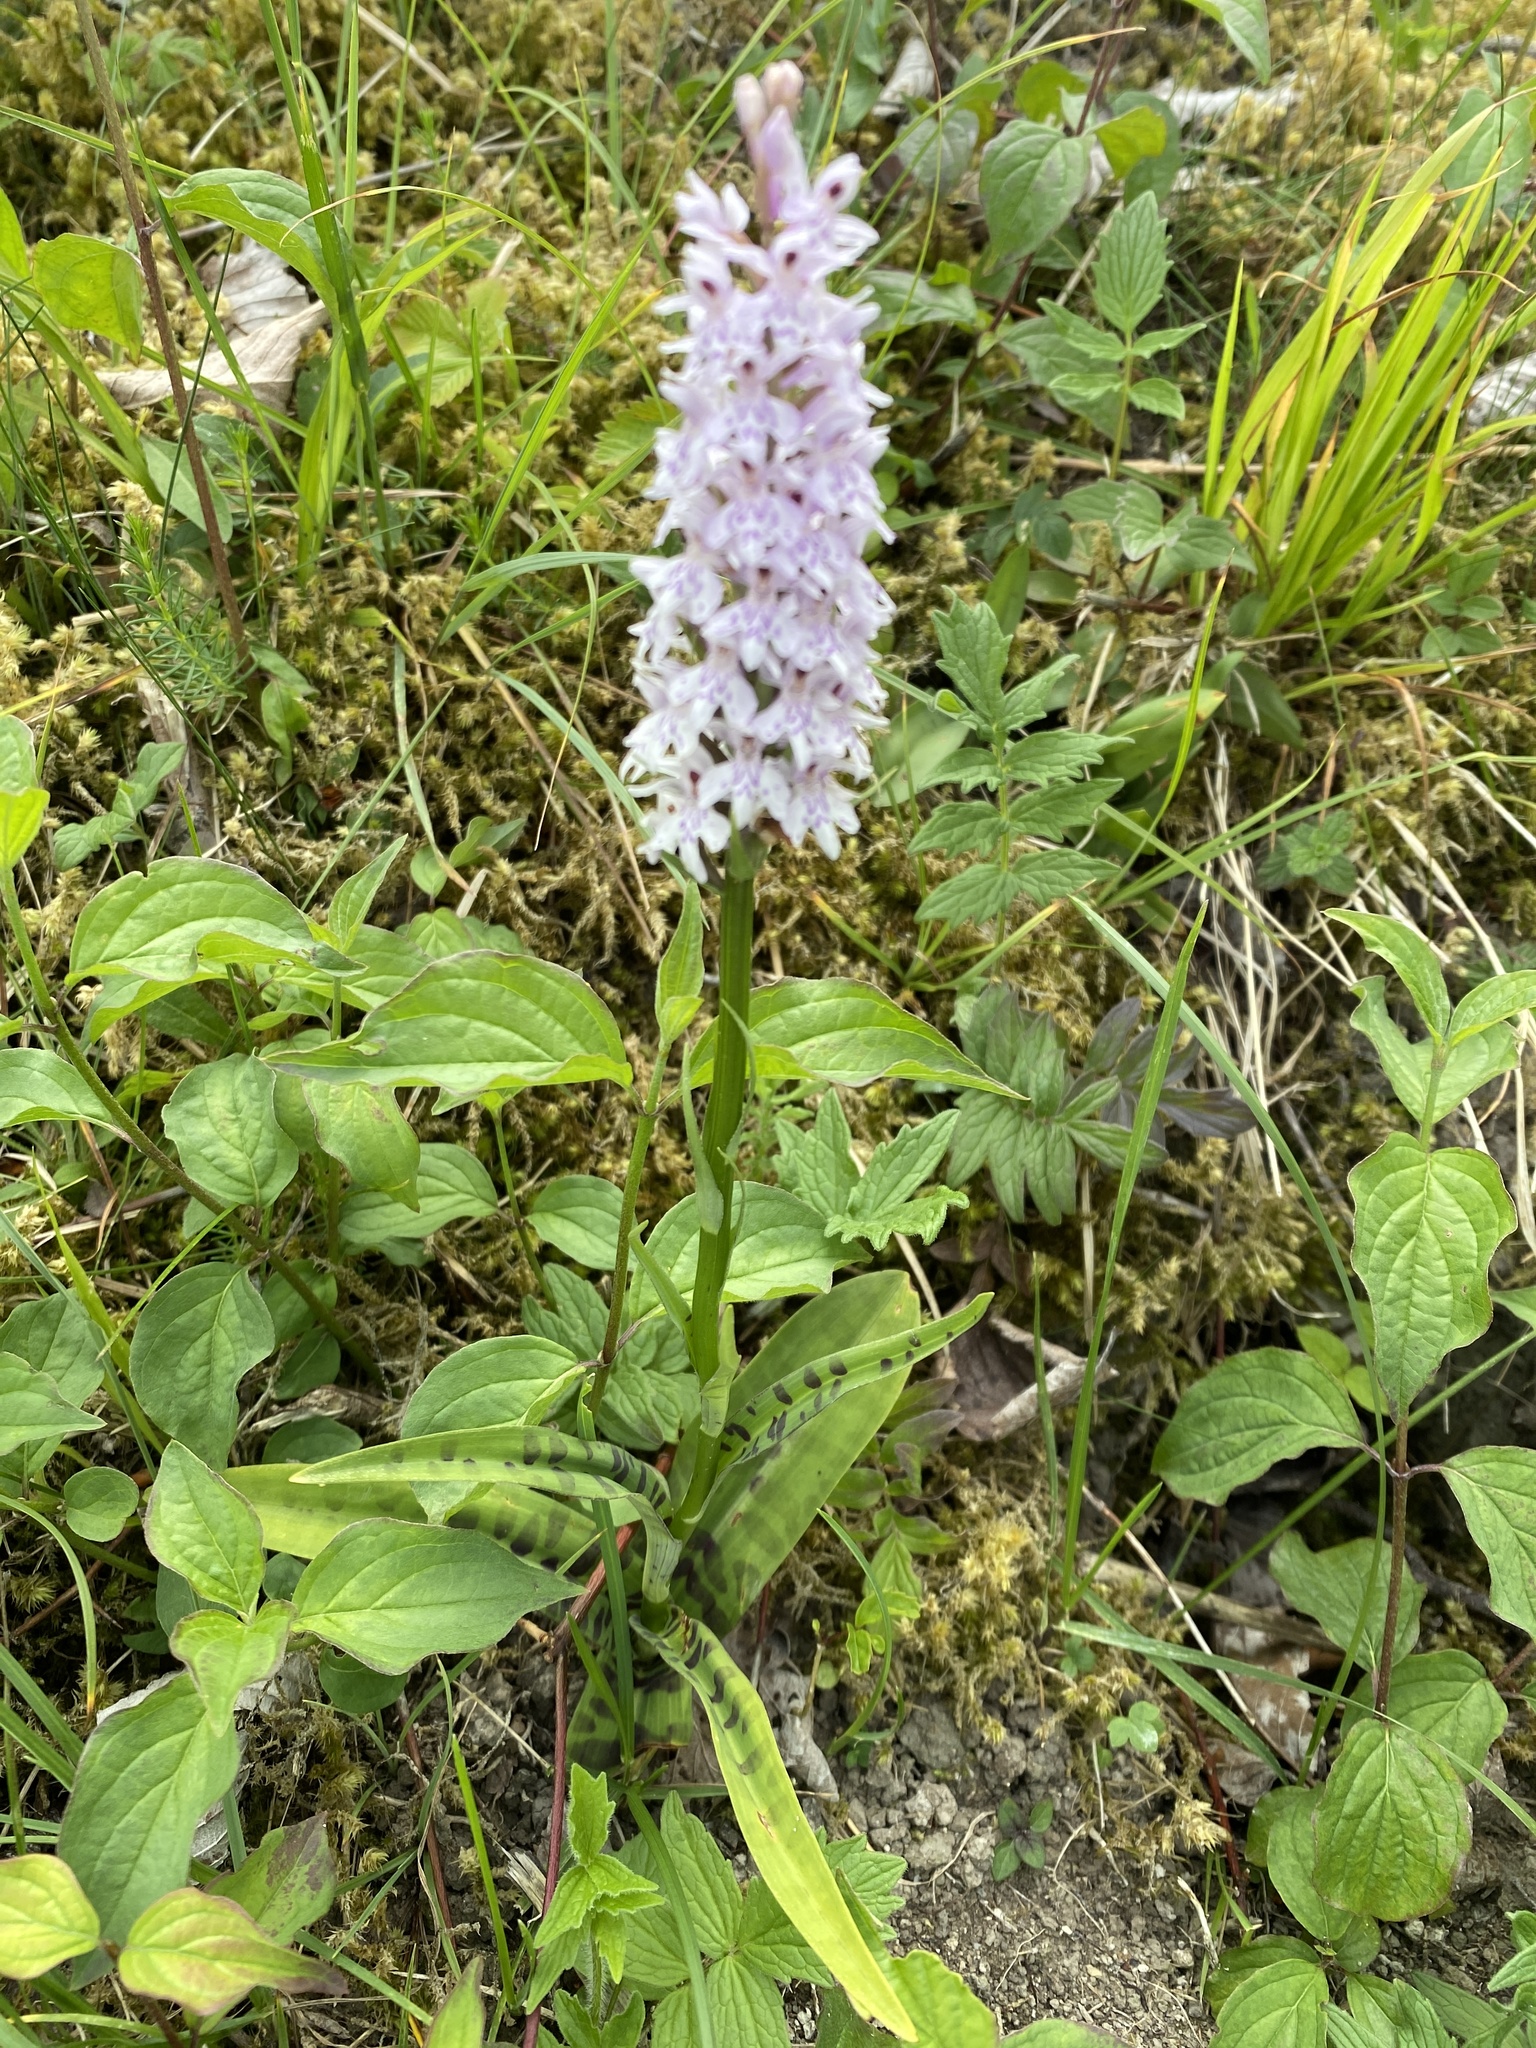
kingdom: Plantae
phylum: Tracheophyta
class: Liliopsida
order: Asparagales
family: Orchidaceae
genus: Dactylorhiza
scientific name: Dactylorhiza maculata
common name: Heath spotted-orchid
